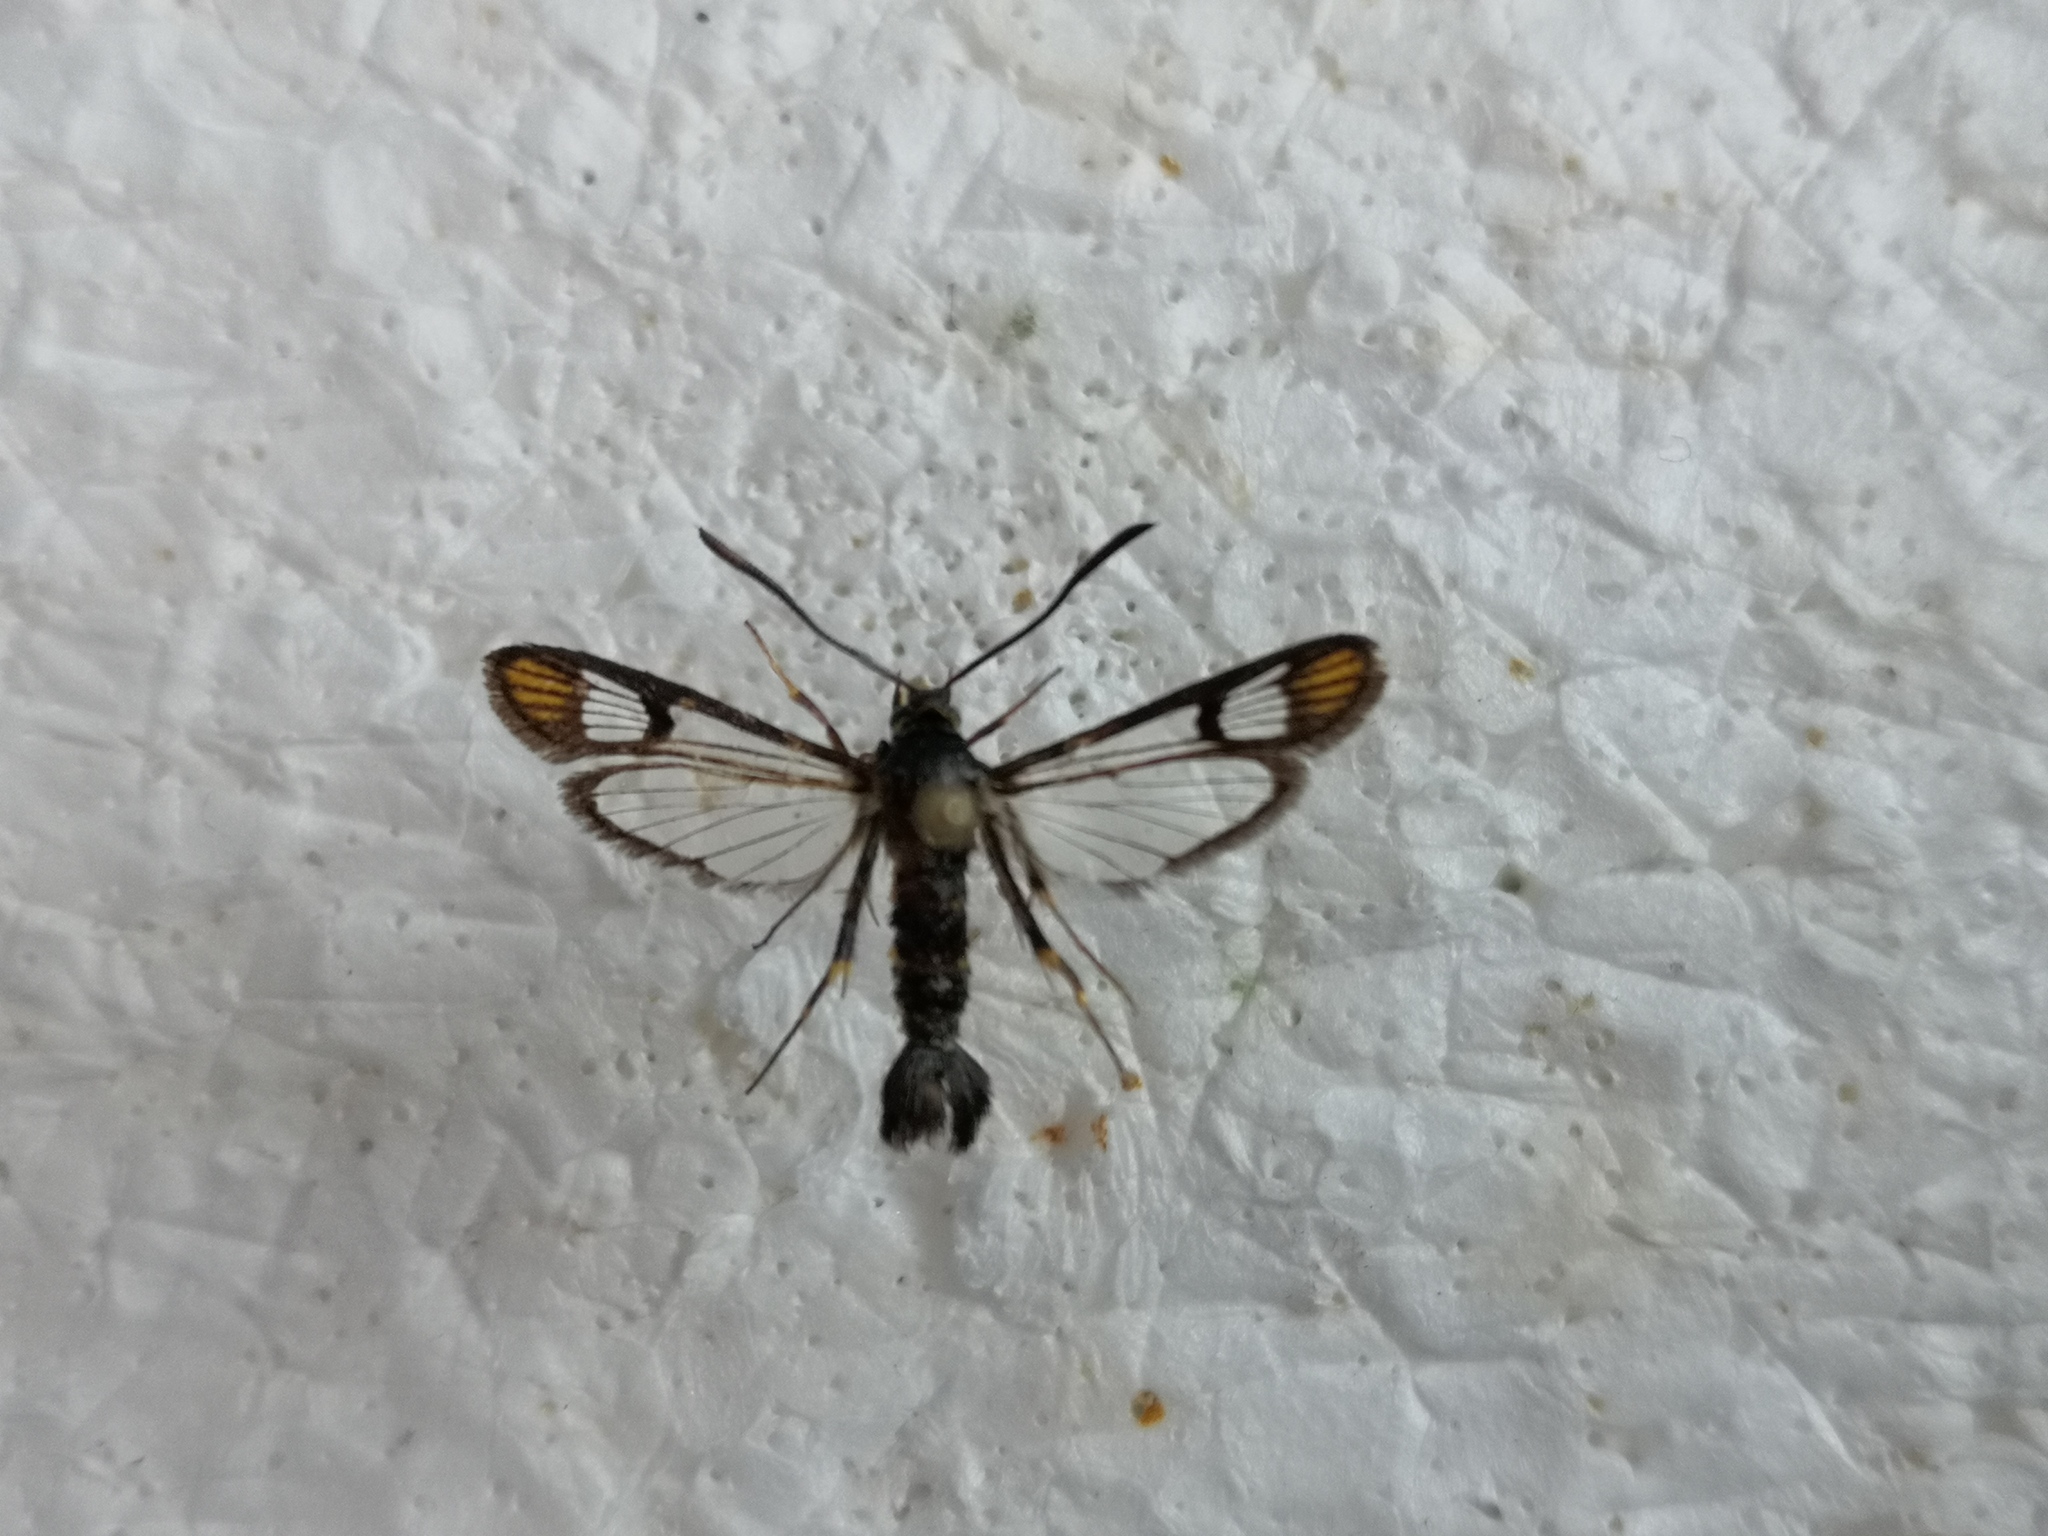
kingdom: Animalia
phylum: Arthropoda
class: Insecta
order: Lepidoptera
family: Sesiidae
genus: Synanthedon
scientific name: Synanthedon conopiformis
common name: Dale's oak clearwing
